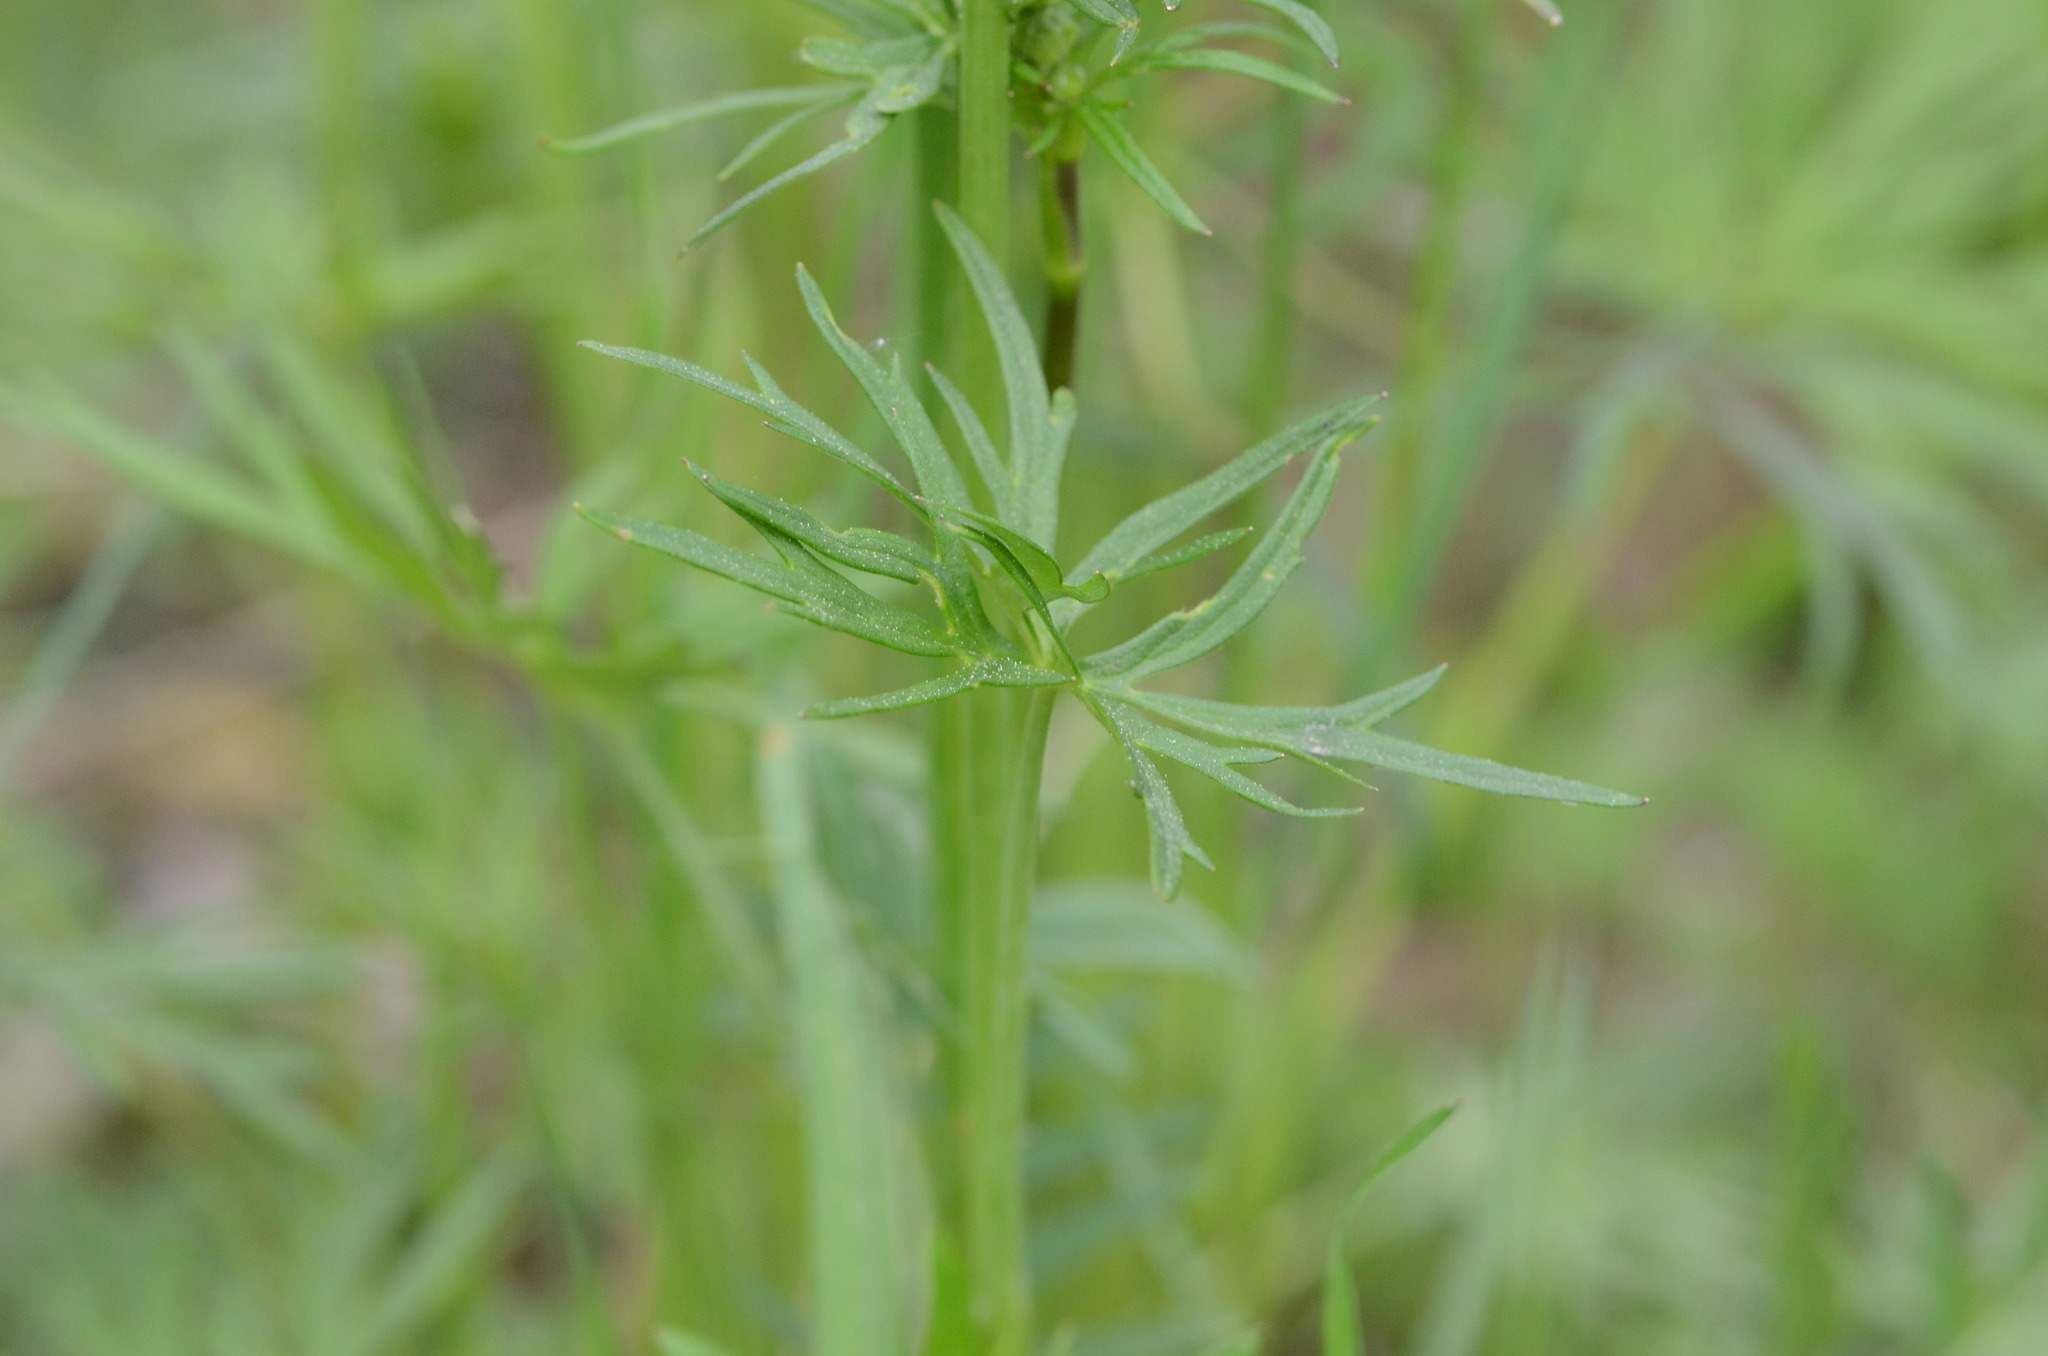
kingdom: Plantae
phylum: Tracheophyta
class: Magnoliopsida
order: Ranunculales
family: Ranunculaceae
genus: Ranunculus
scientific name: Ranunculus acris
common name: Meadow buttercup
